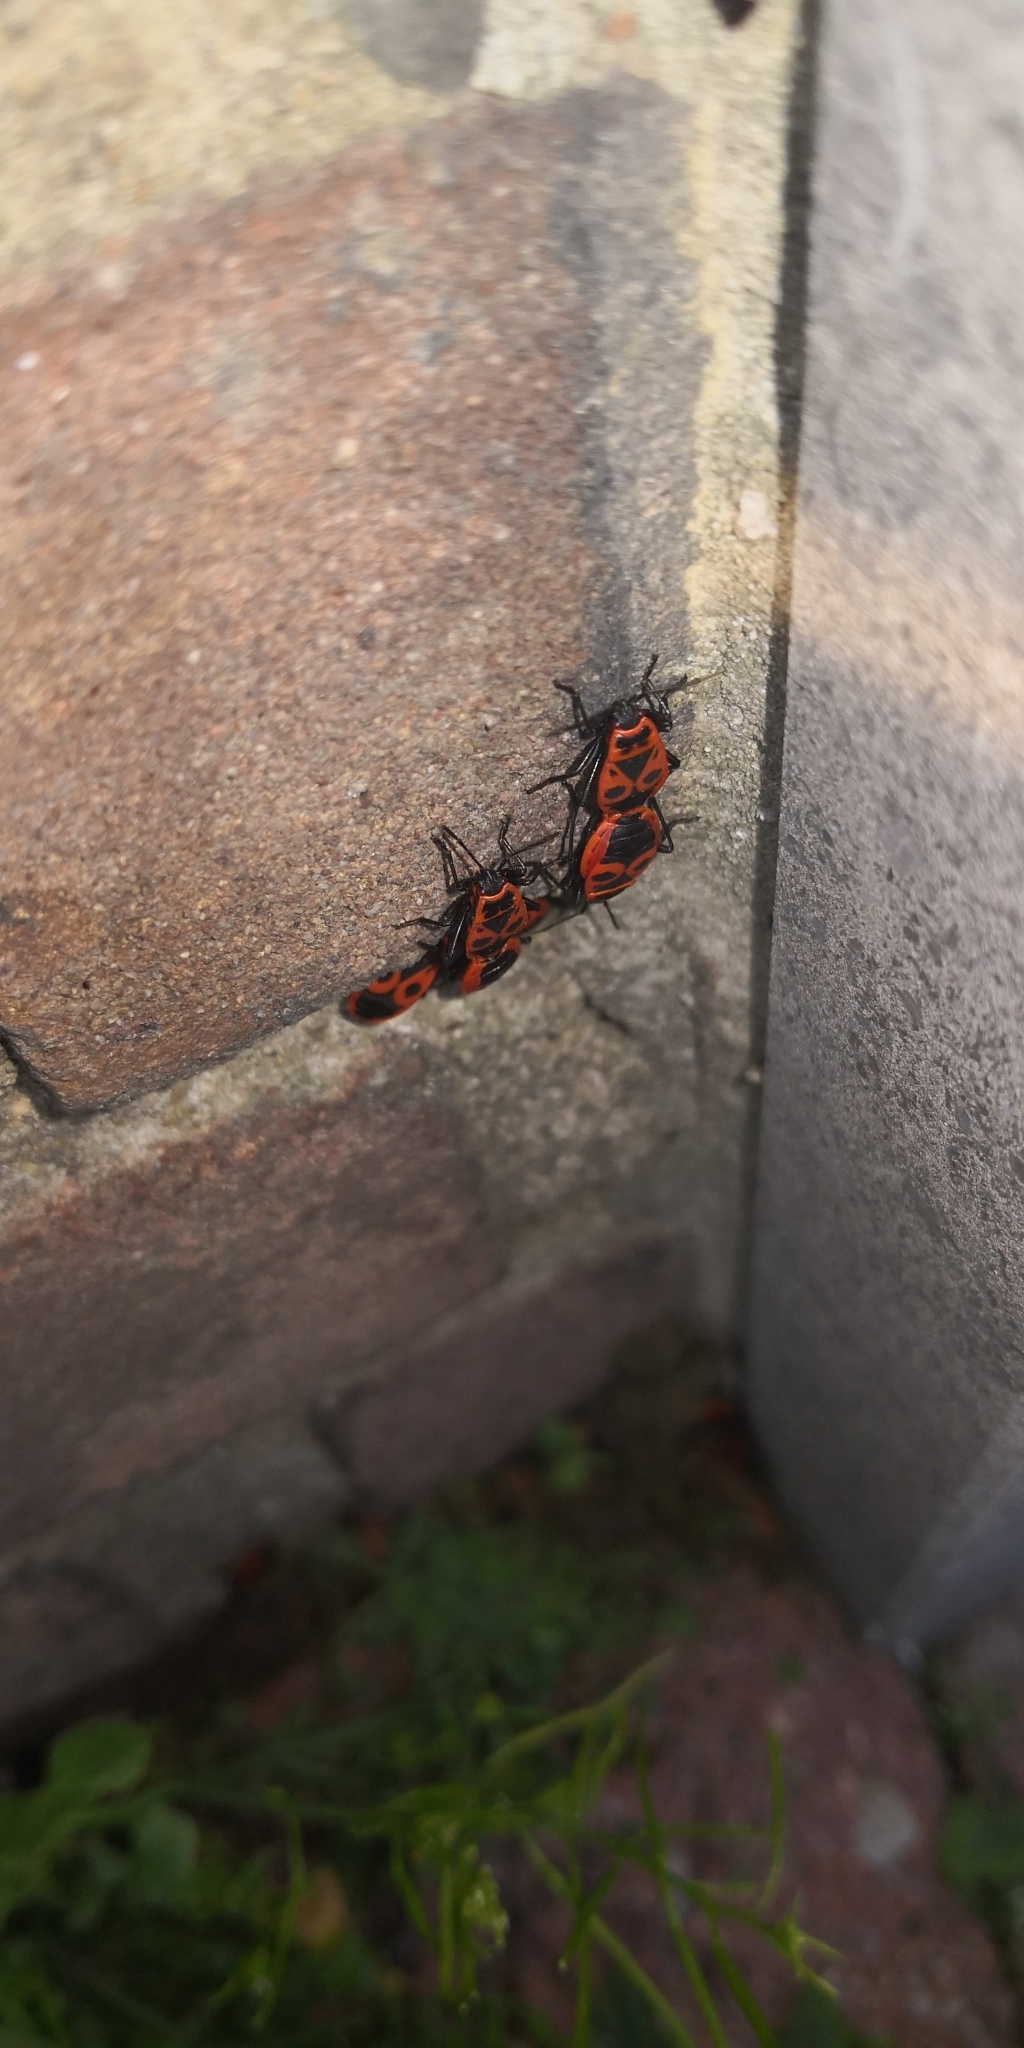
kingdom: Animalia
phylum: Arthropoda
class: Insecta
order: Hemiptera
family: Pyrrhocoridae
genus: Pyrrhocoris
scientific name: Pyrrhocoris apterus
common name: Firebug
